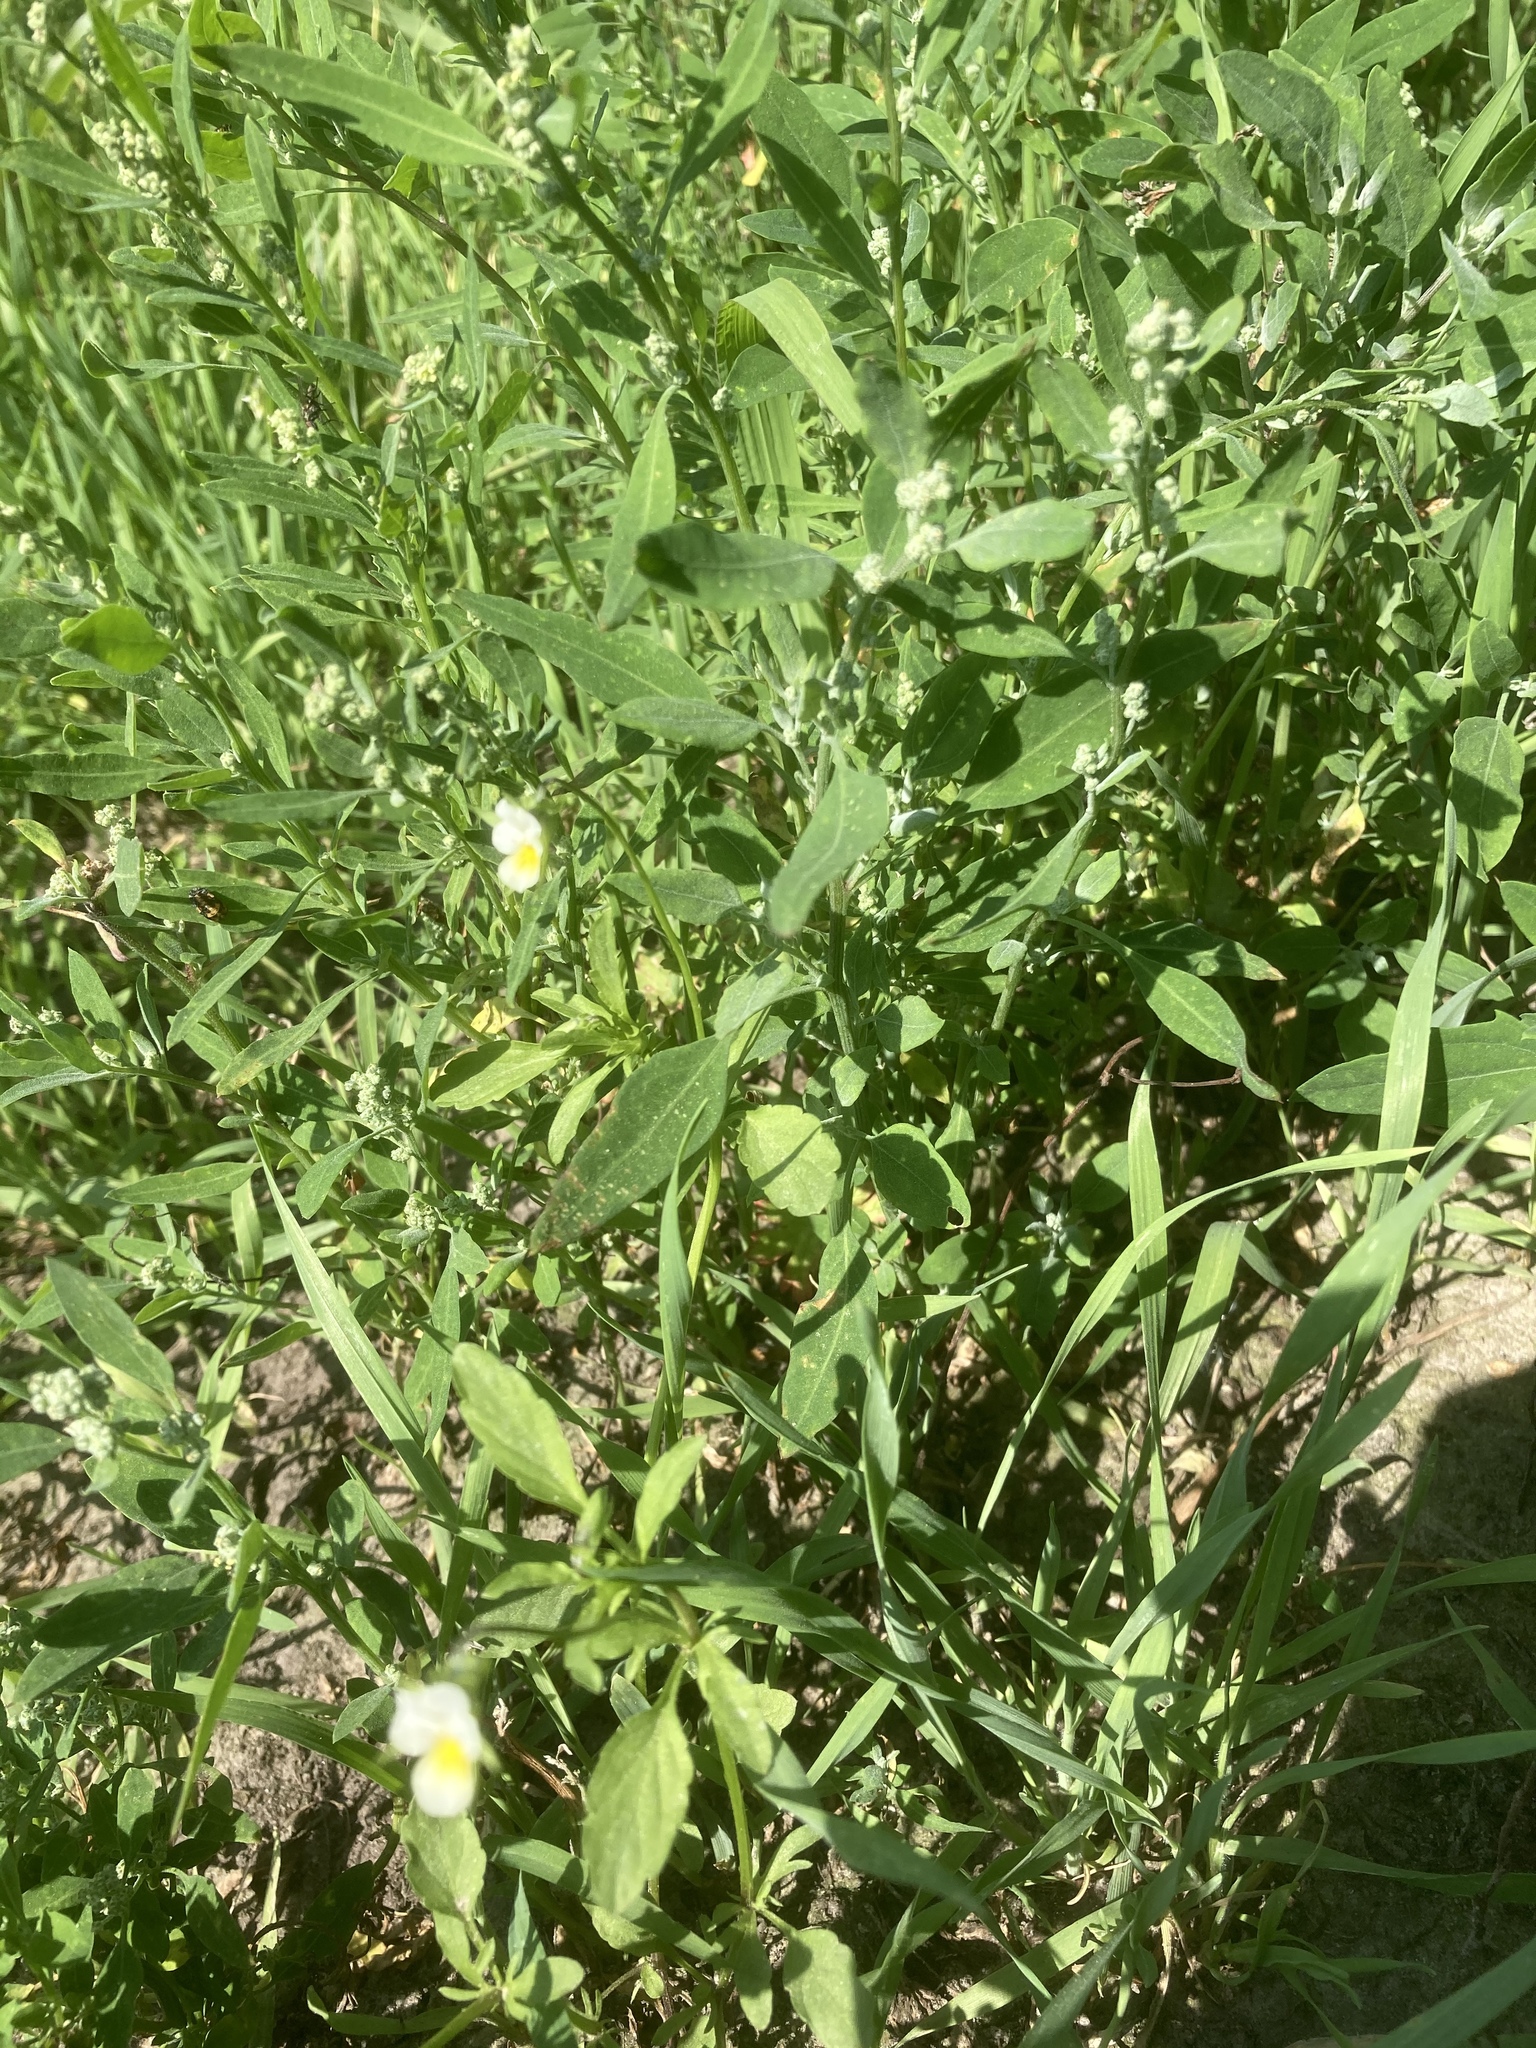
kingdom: Plantae
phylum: Tracheophyta
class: Magnoliopsida
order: Malpighiales
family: Violaceae
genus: Viola
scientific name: Viola arvensis
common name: Field pansy
